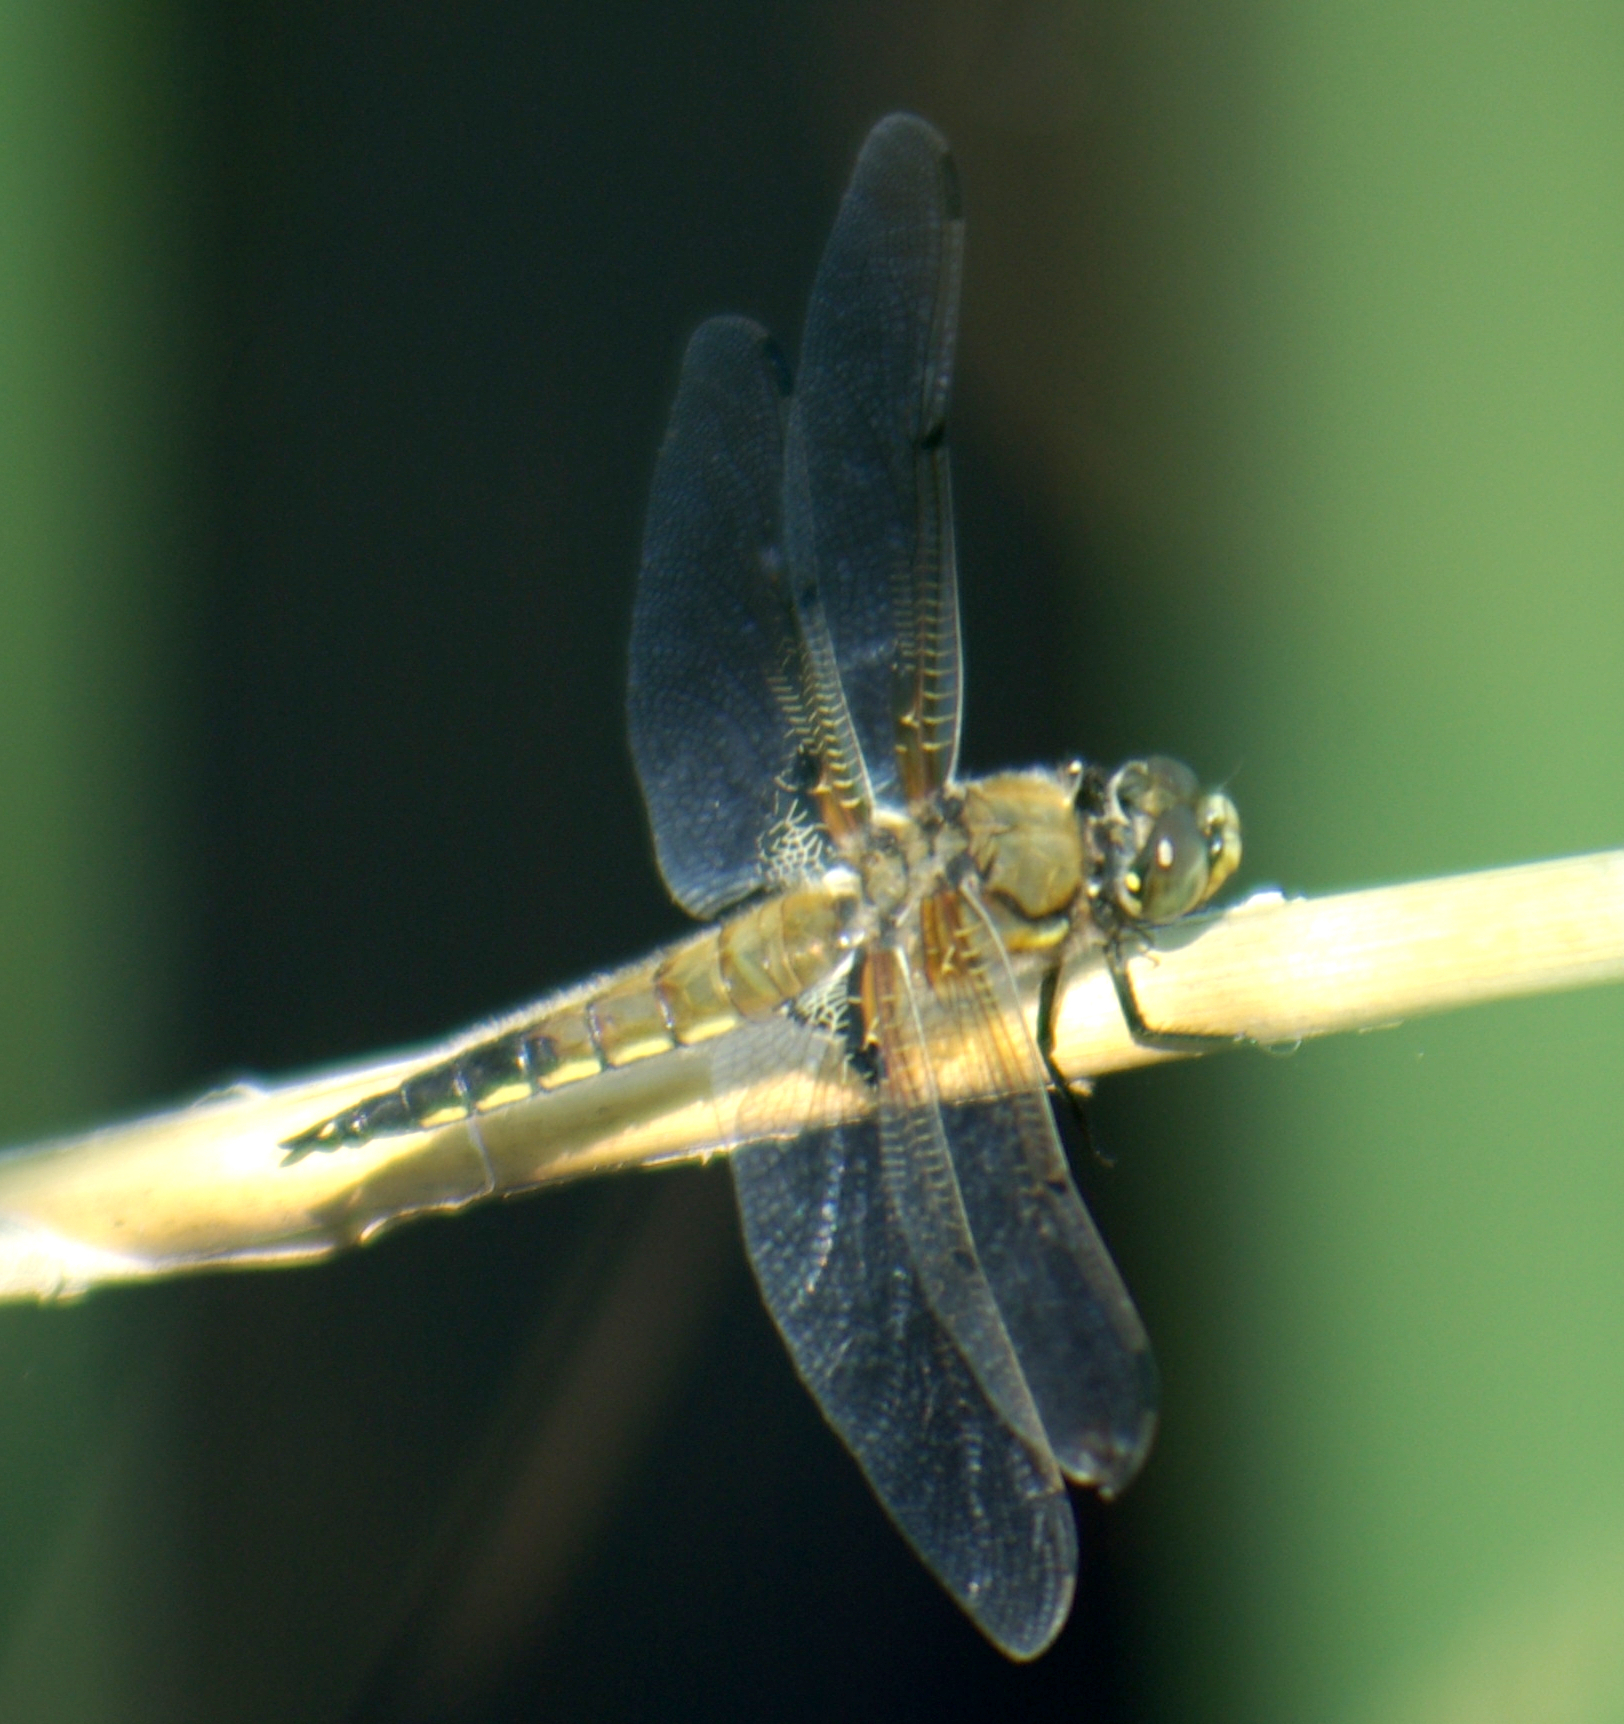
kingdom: Animalia
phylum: Arthropoda
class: Insecta
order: Odonata
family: Libellulidae
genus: Libellula
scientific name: Libellula quadrimaculata
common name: Four-spotted chaser
